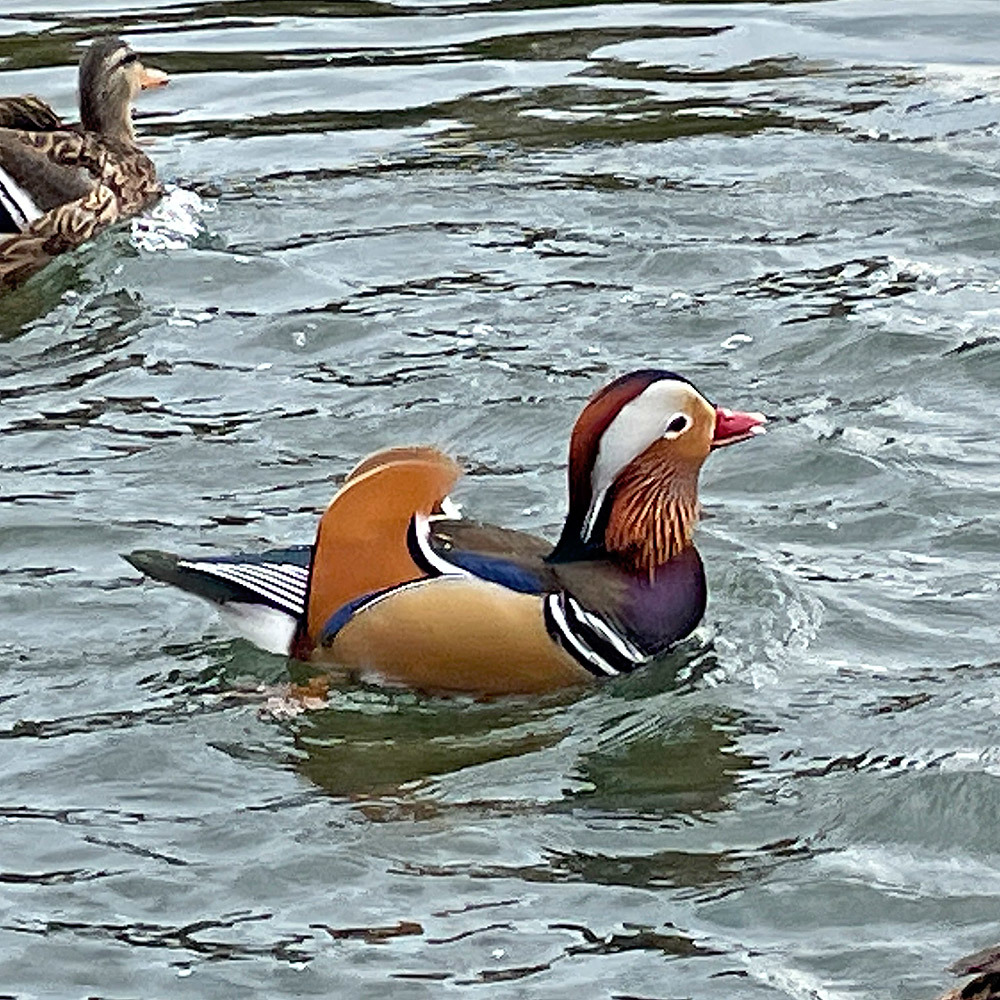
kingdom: Animalia
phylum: Chordata
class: Aves
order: Anseriformes
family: Anatidae
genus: Aix
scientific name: Aix galericulata
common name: Mandarin duck
